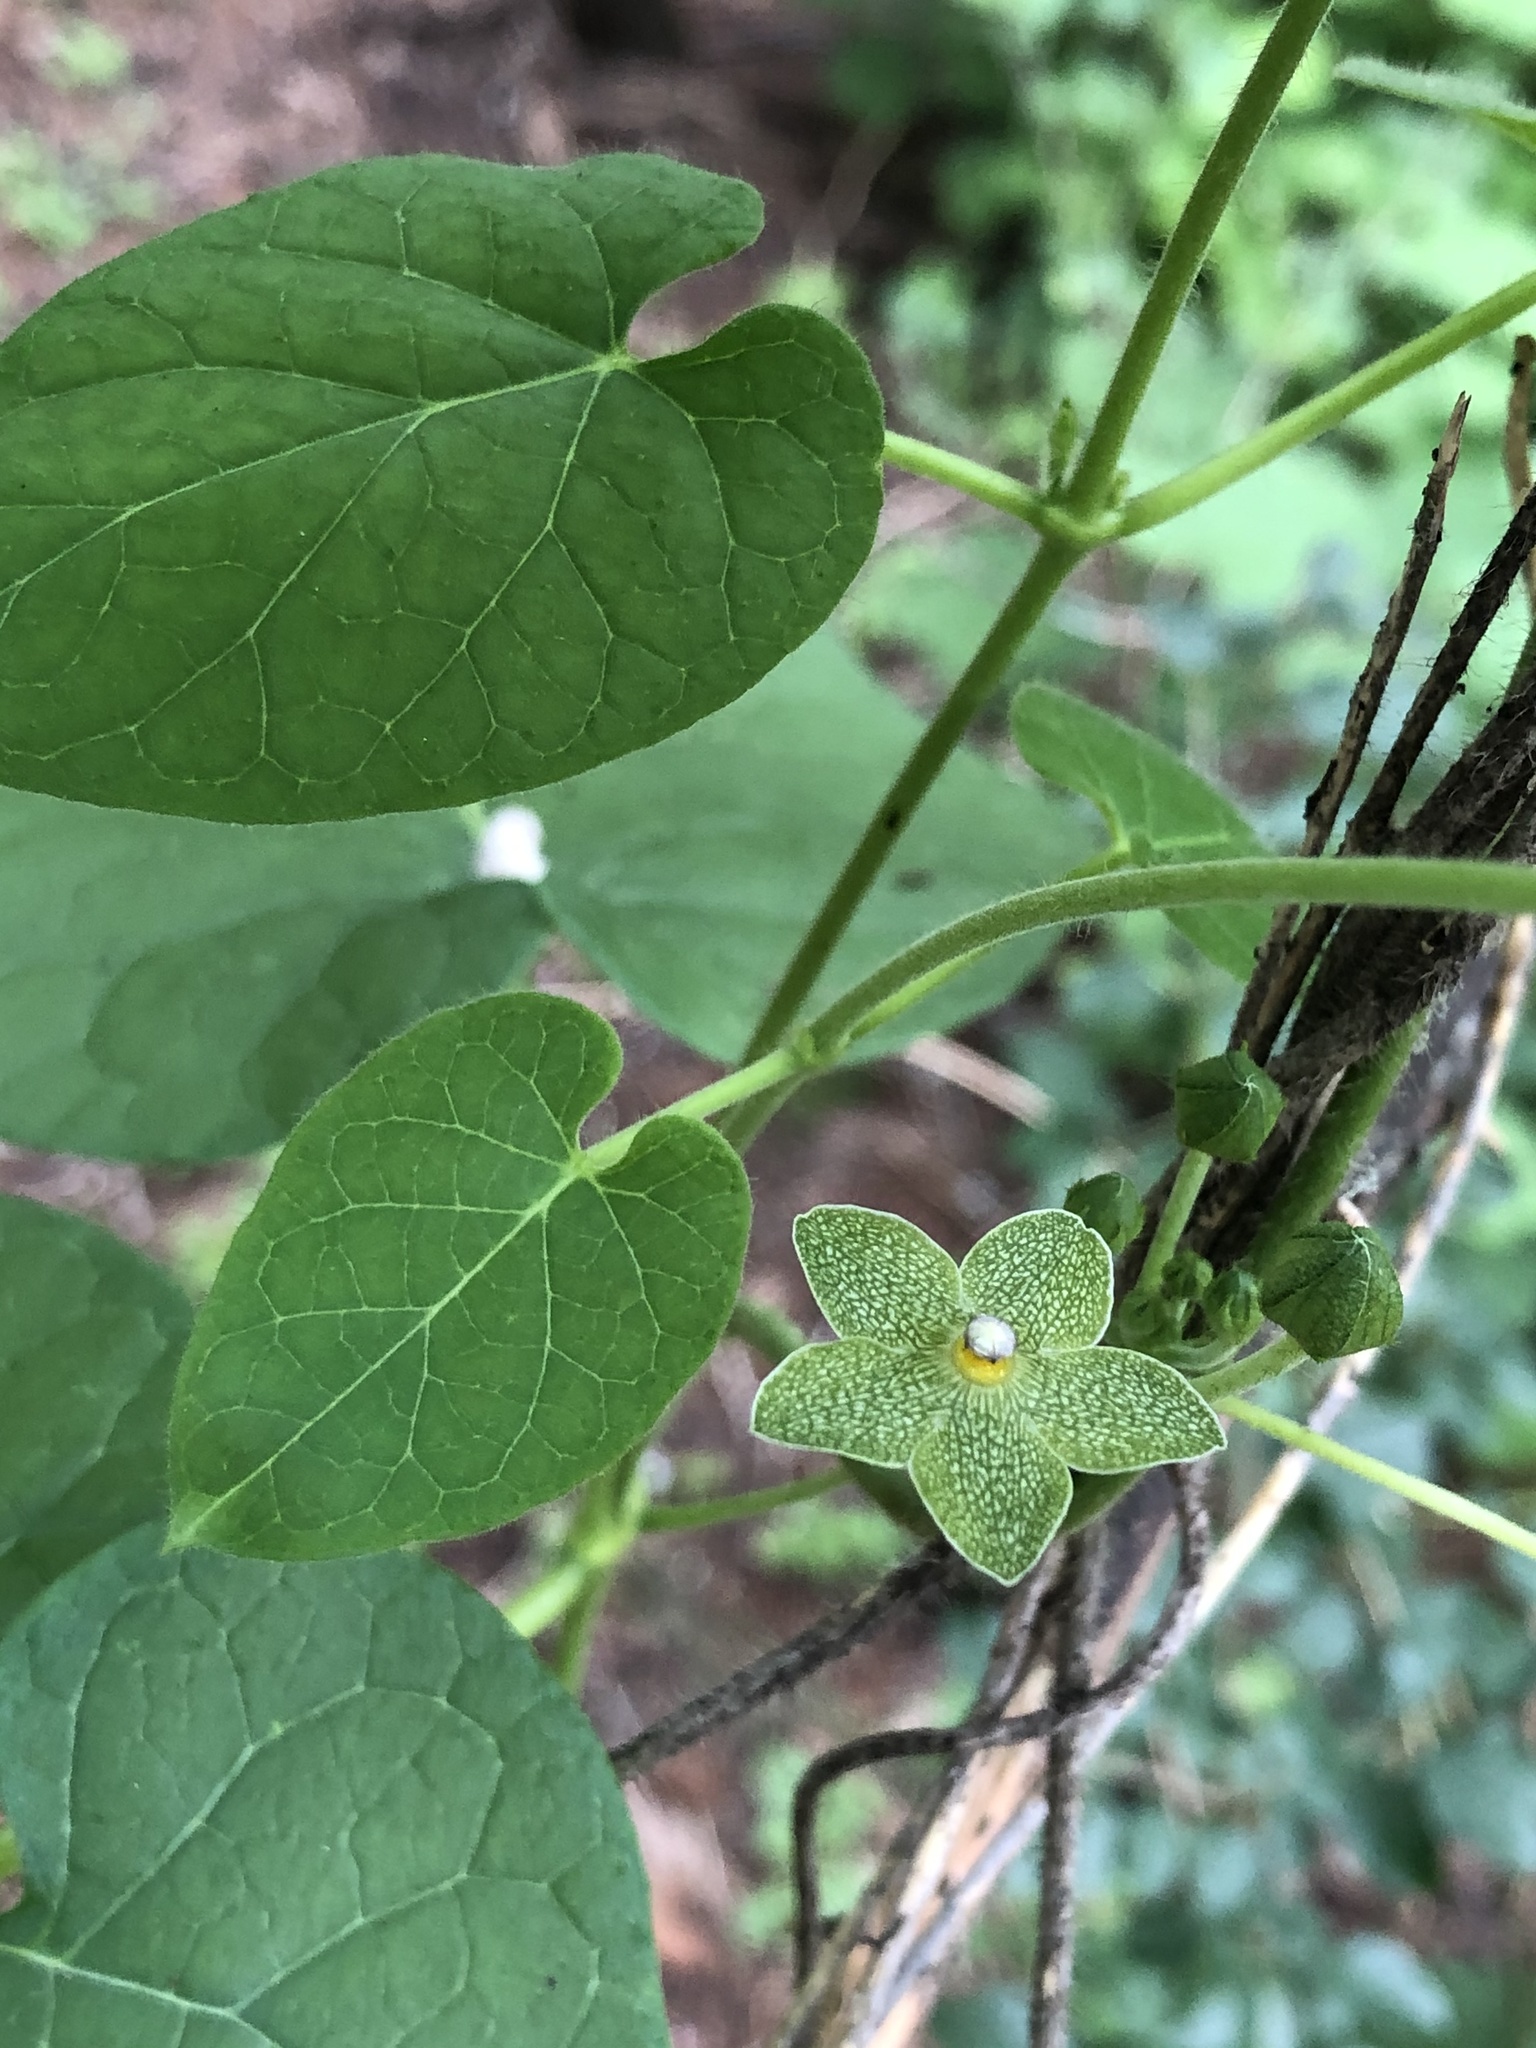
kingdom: Plantae
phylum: Tracheophyta
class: Magnoliopsida
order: Gentianales
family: Apocynaceae
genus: Dictyanthus
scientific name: Dictyanthus reticulatus
